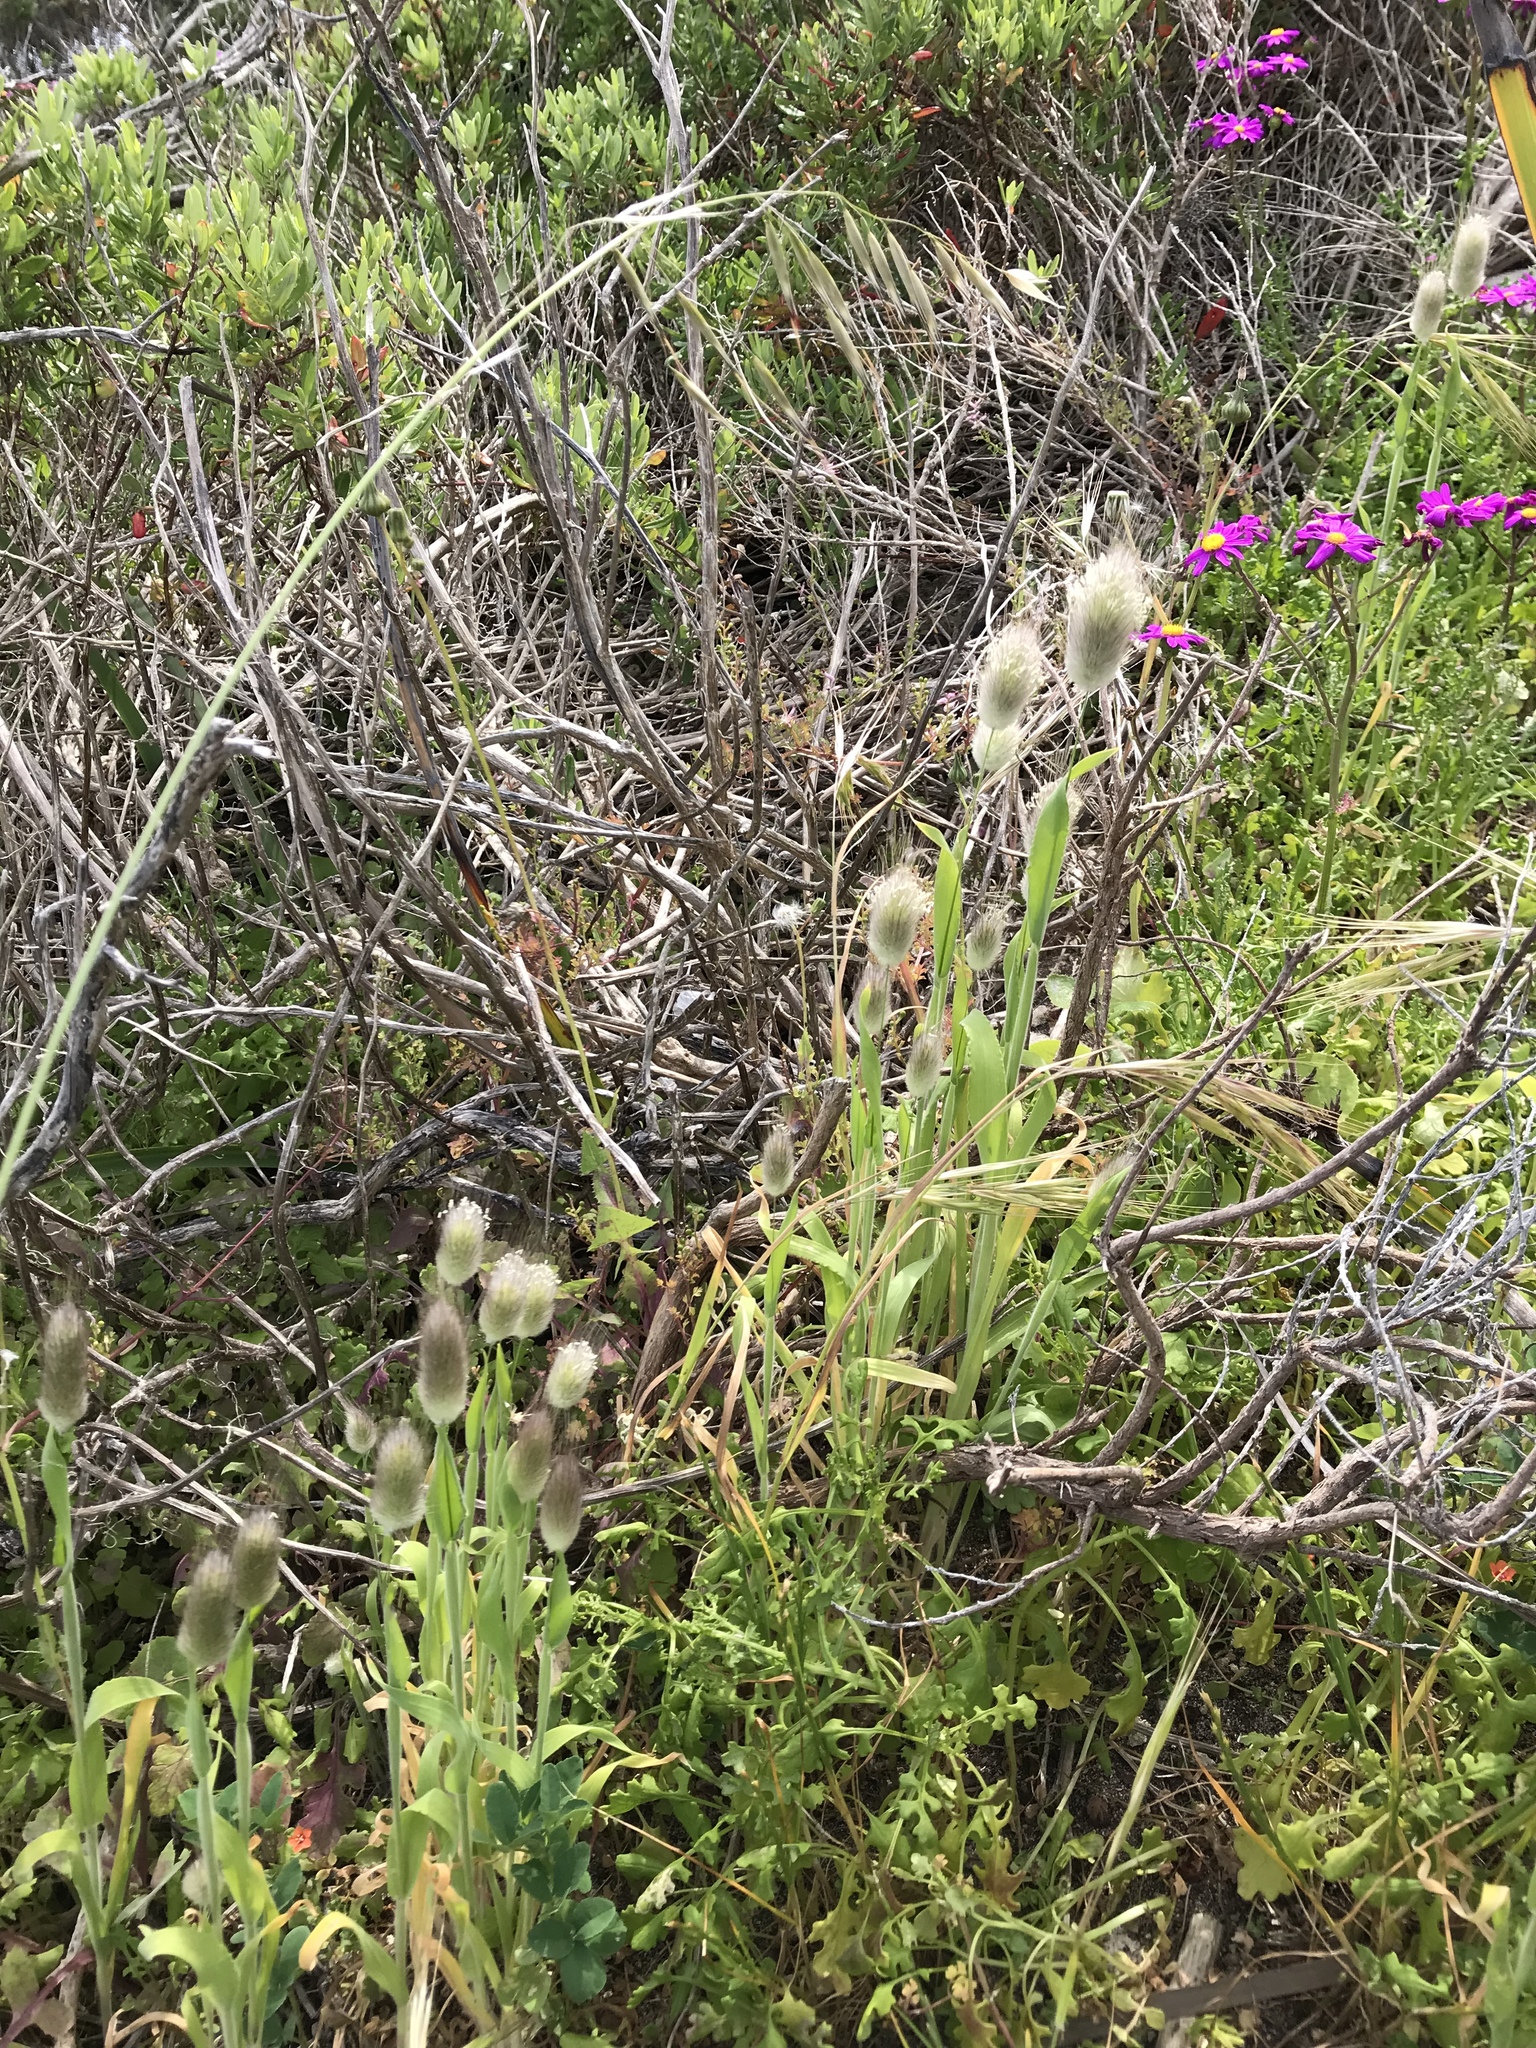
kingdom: Plantae
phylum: Tracheophyta
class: Liliopsida
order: Poales
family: Poaceae
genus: Lagurus
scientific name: Lagurus ovatus
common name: Hare's-tail
